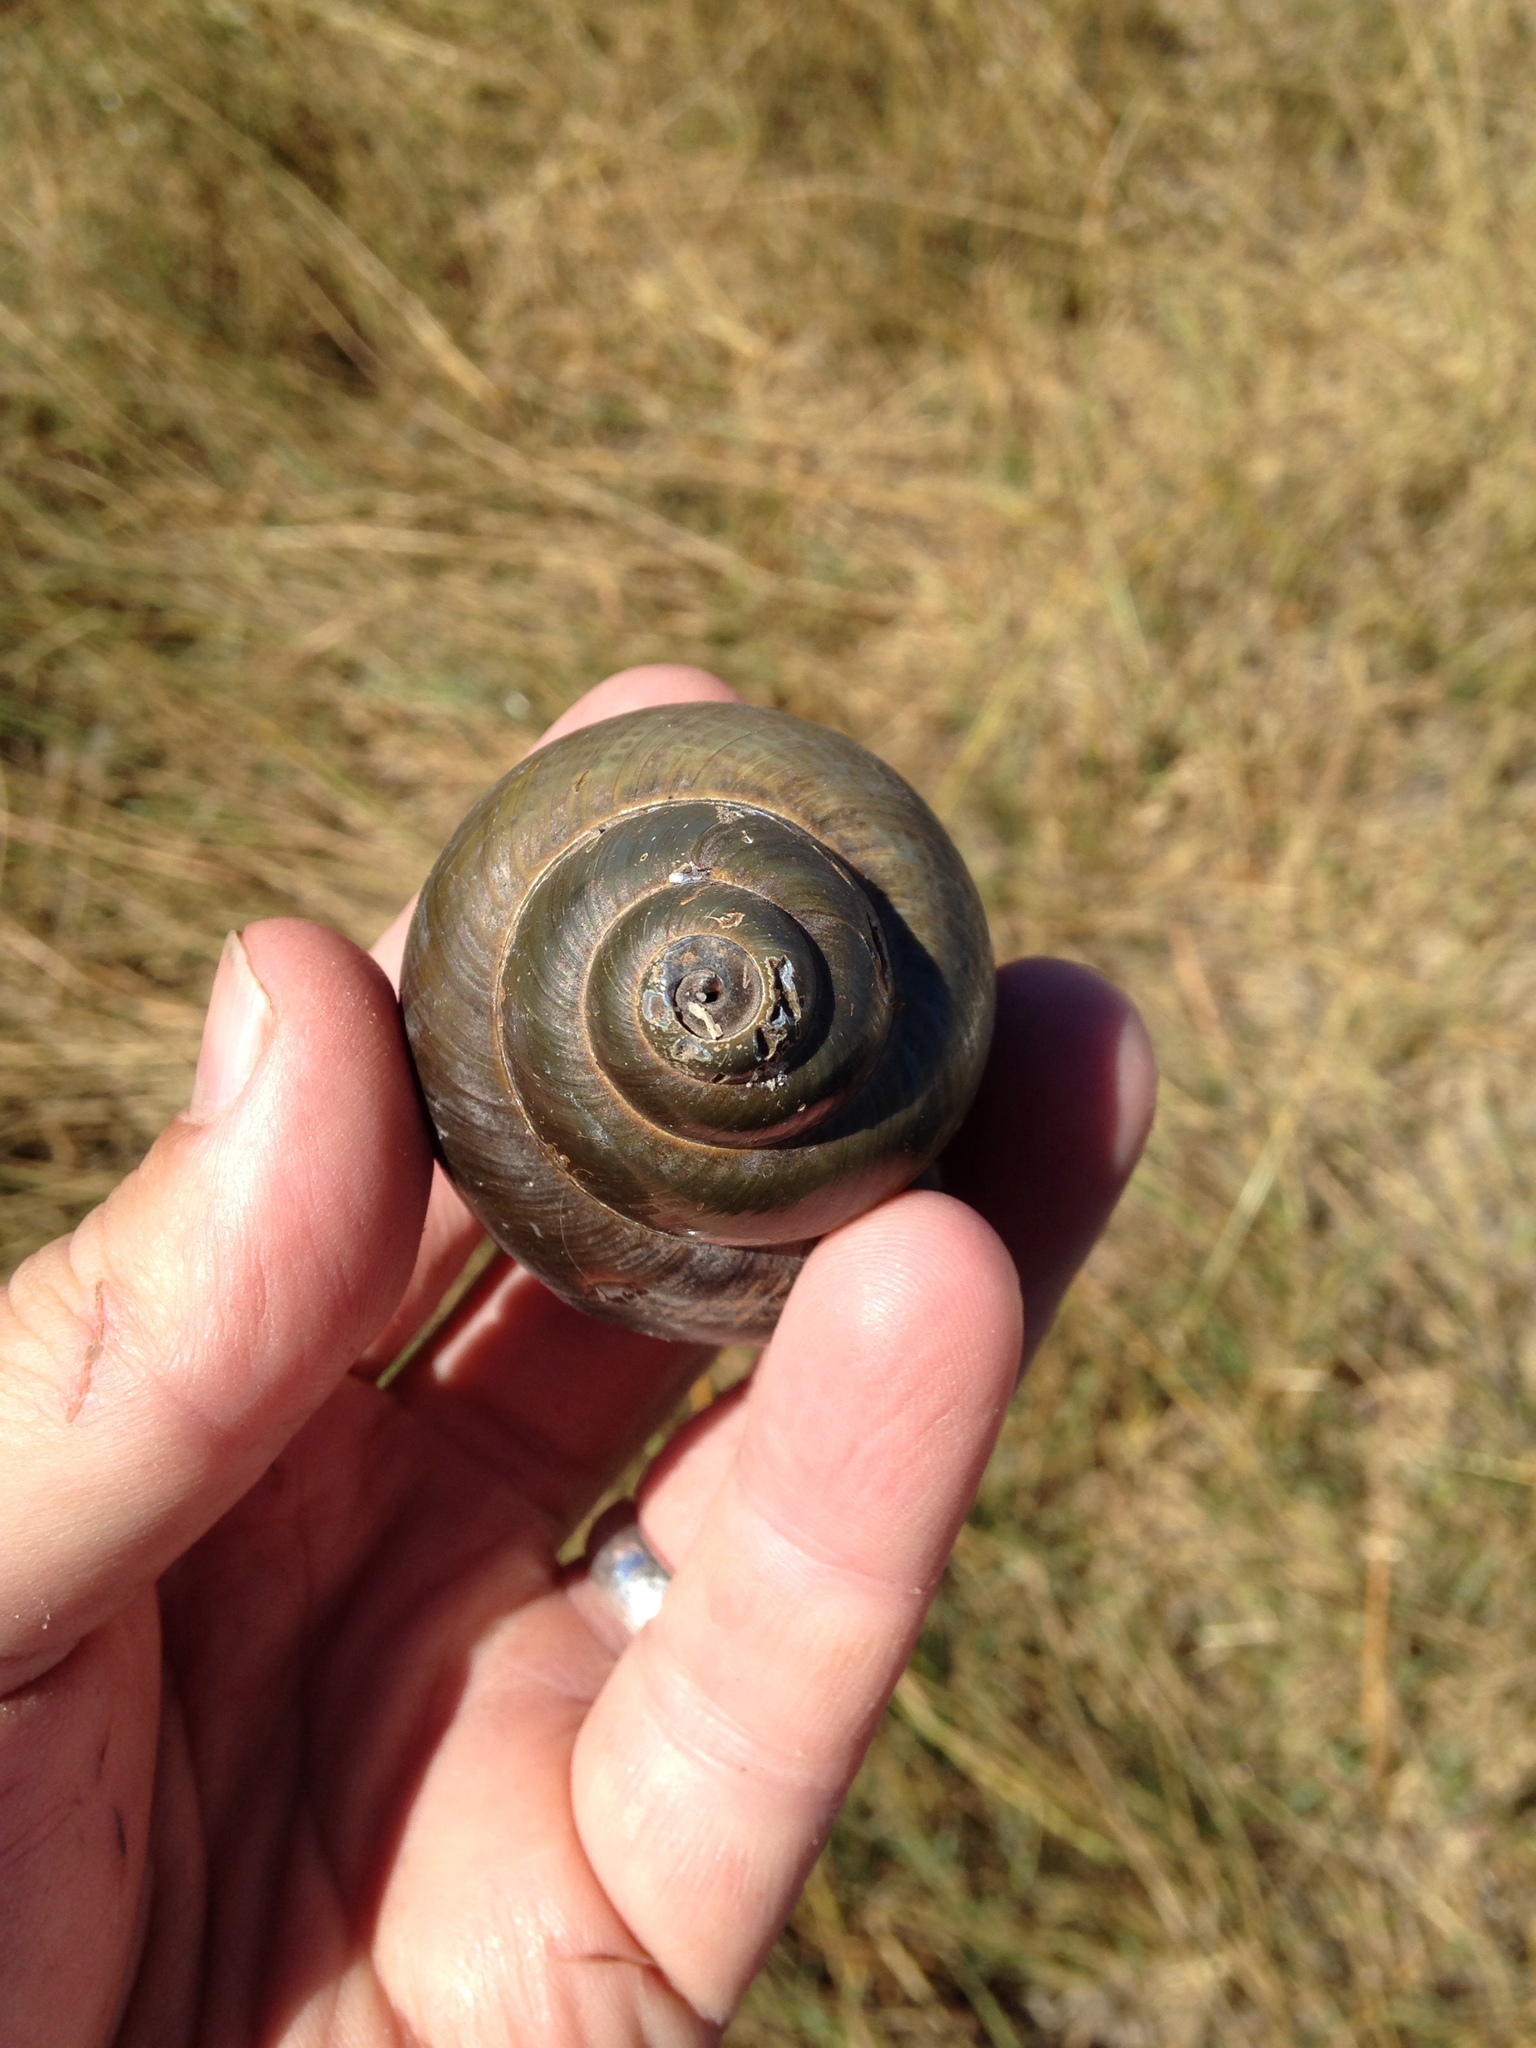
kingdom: Animalia
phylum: Mollusca
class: Gastropoda
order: Architaenioglossa
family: Ampullariidae
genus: Lanistes
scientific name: Lanistes ovum
